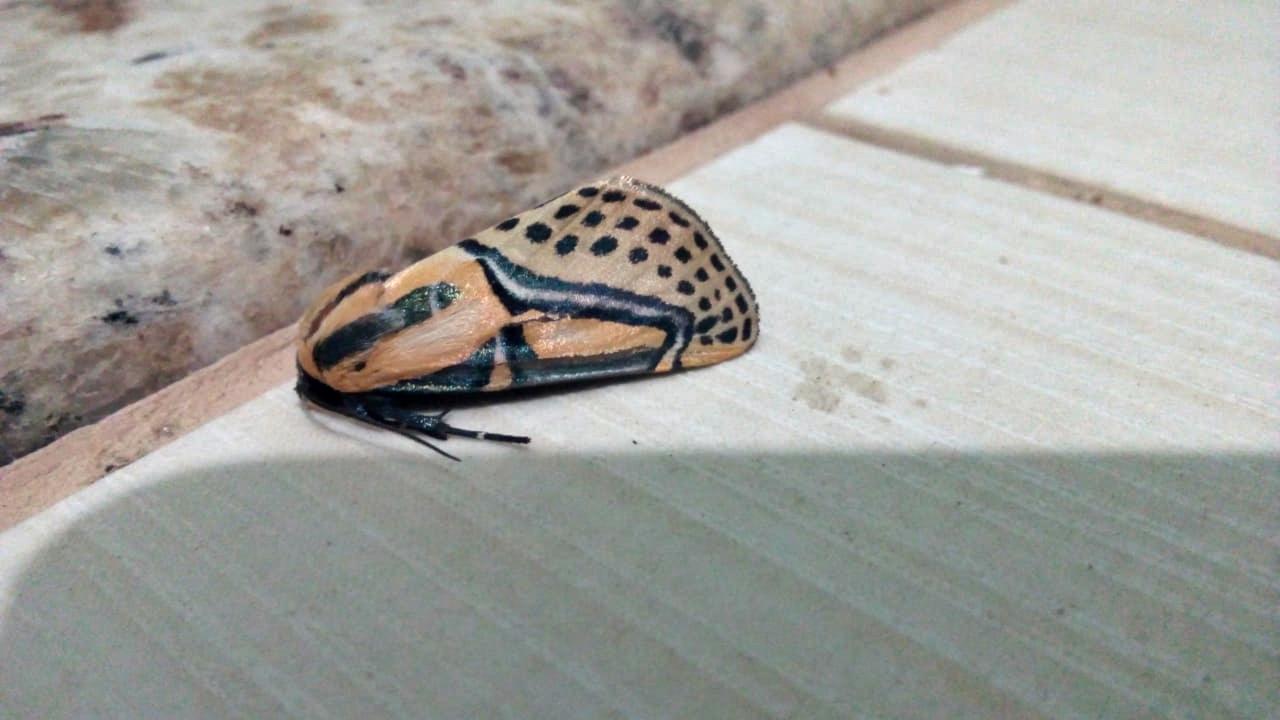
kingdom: Animalia
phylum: Arthropoda
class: Insecta
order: Lepidoptera
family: Erebidae
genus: Diphthera
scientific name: Diphthera festiva
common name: Hieroglyphic moth
